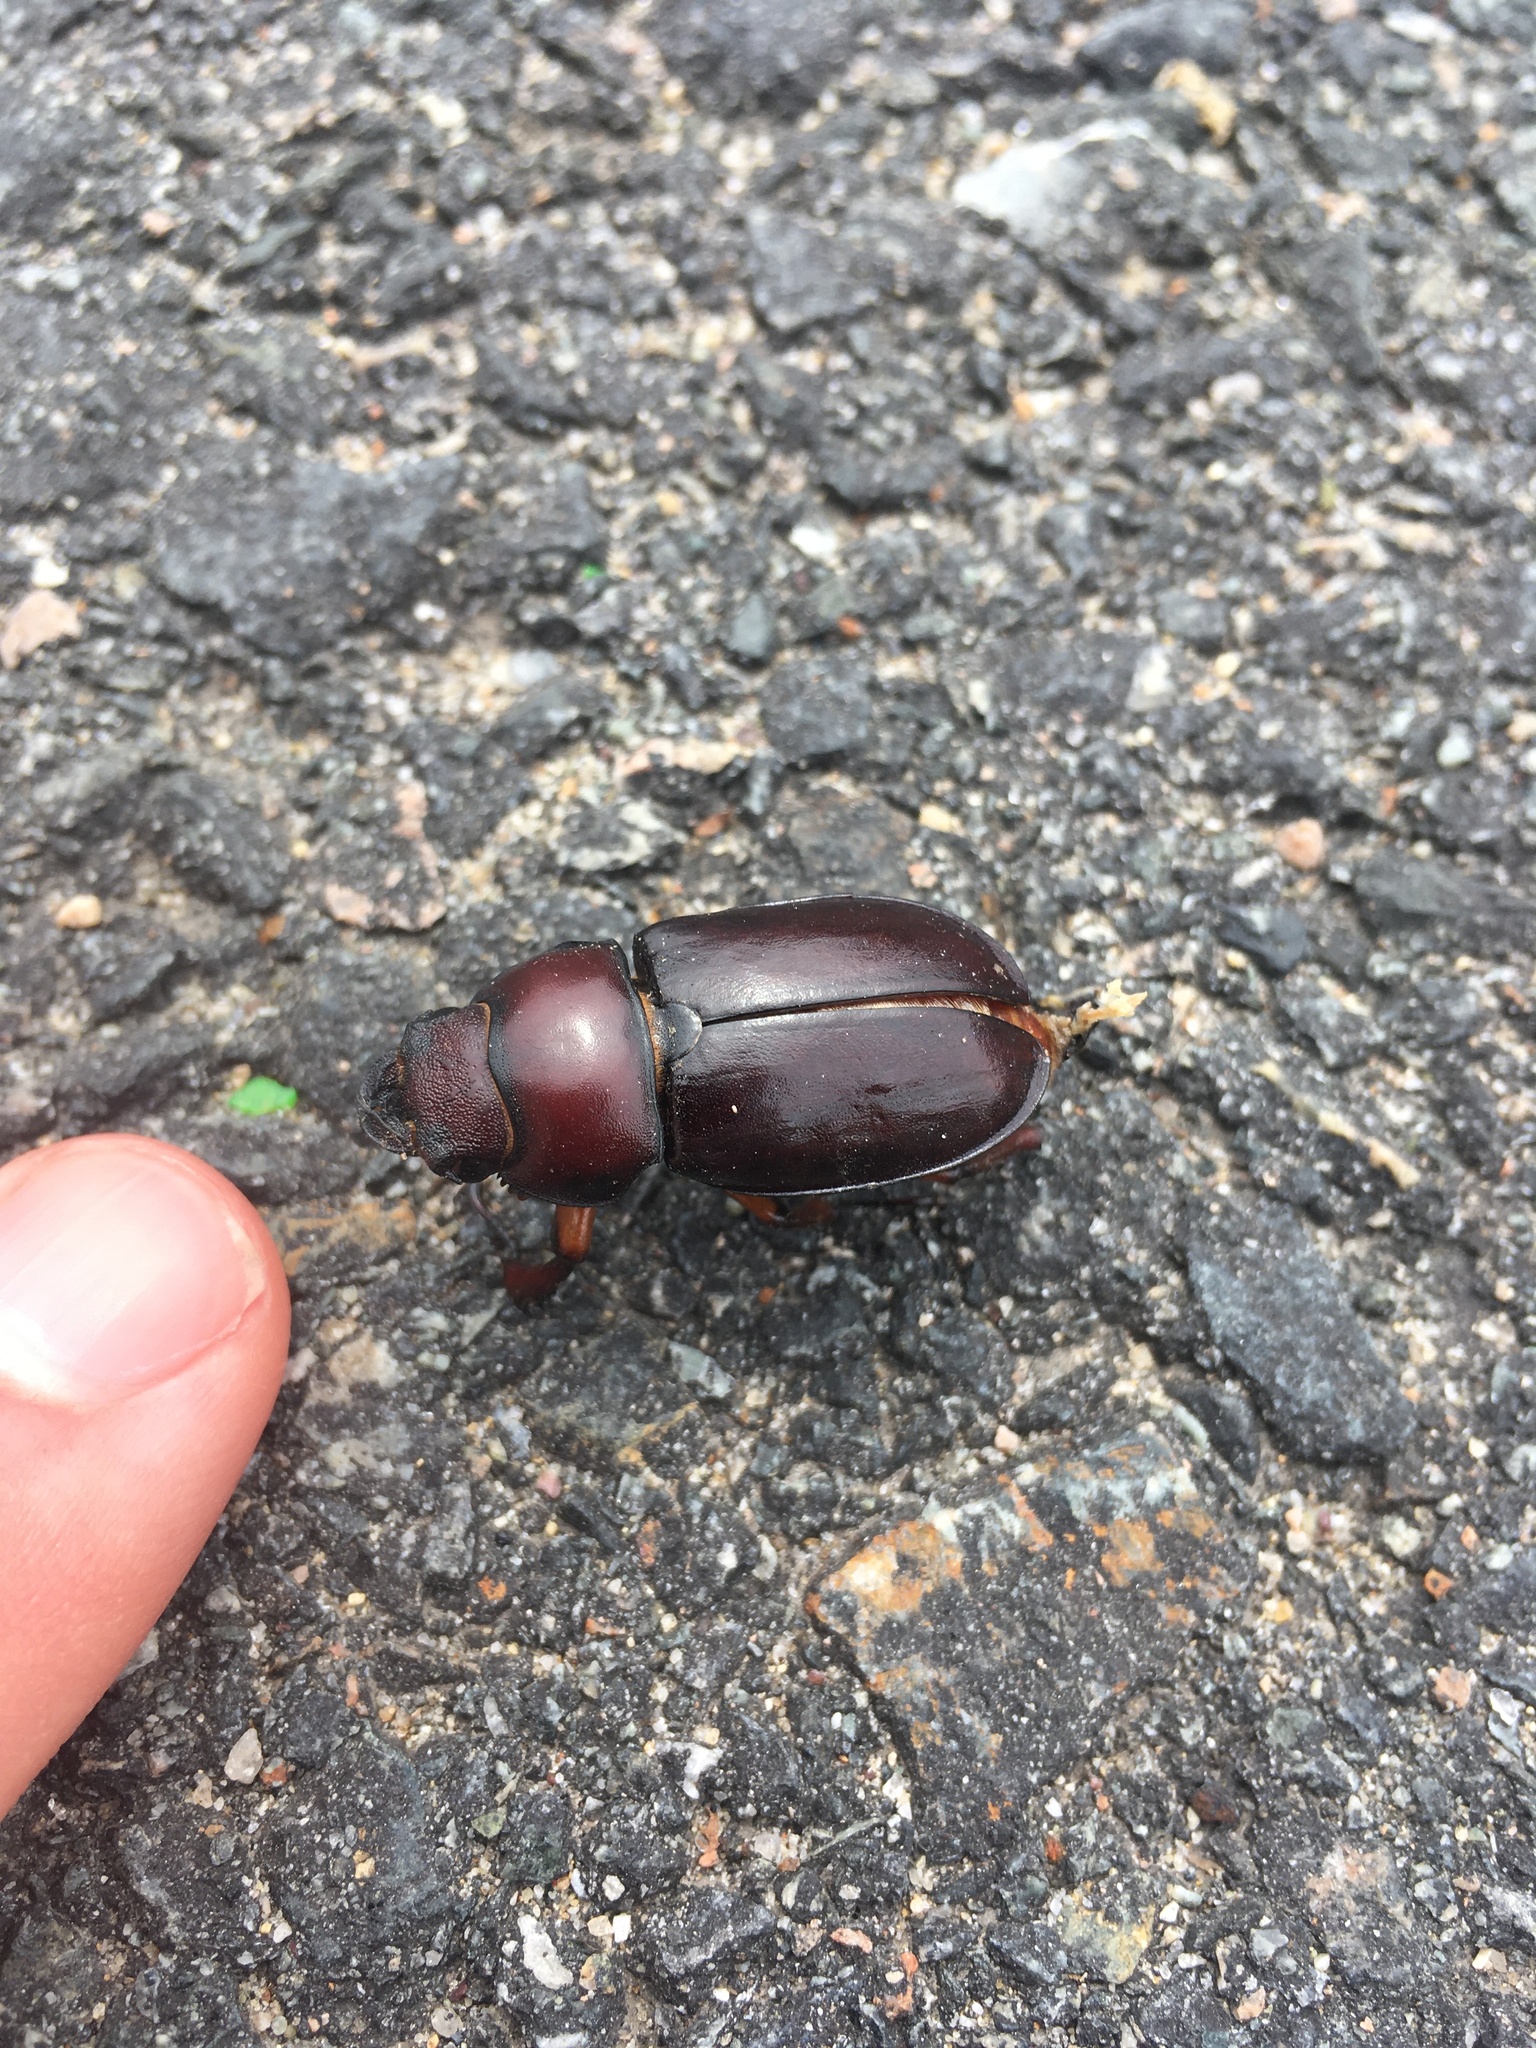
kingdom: Animalia
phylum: Arthropoda
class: Insecta
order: Coleoptera
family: Lucanidae
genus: Lucanus
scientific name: Lucanus capreolus
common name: Stag beetle
